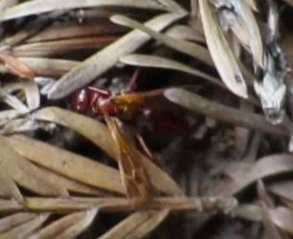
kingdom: Animalia
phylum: Arthropoda
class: Insecta
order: Hymenoptera
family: Pompilidae
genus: Sphictostethus
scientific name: Sphictostethus nitidus
